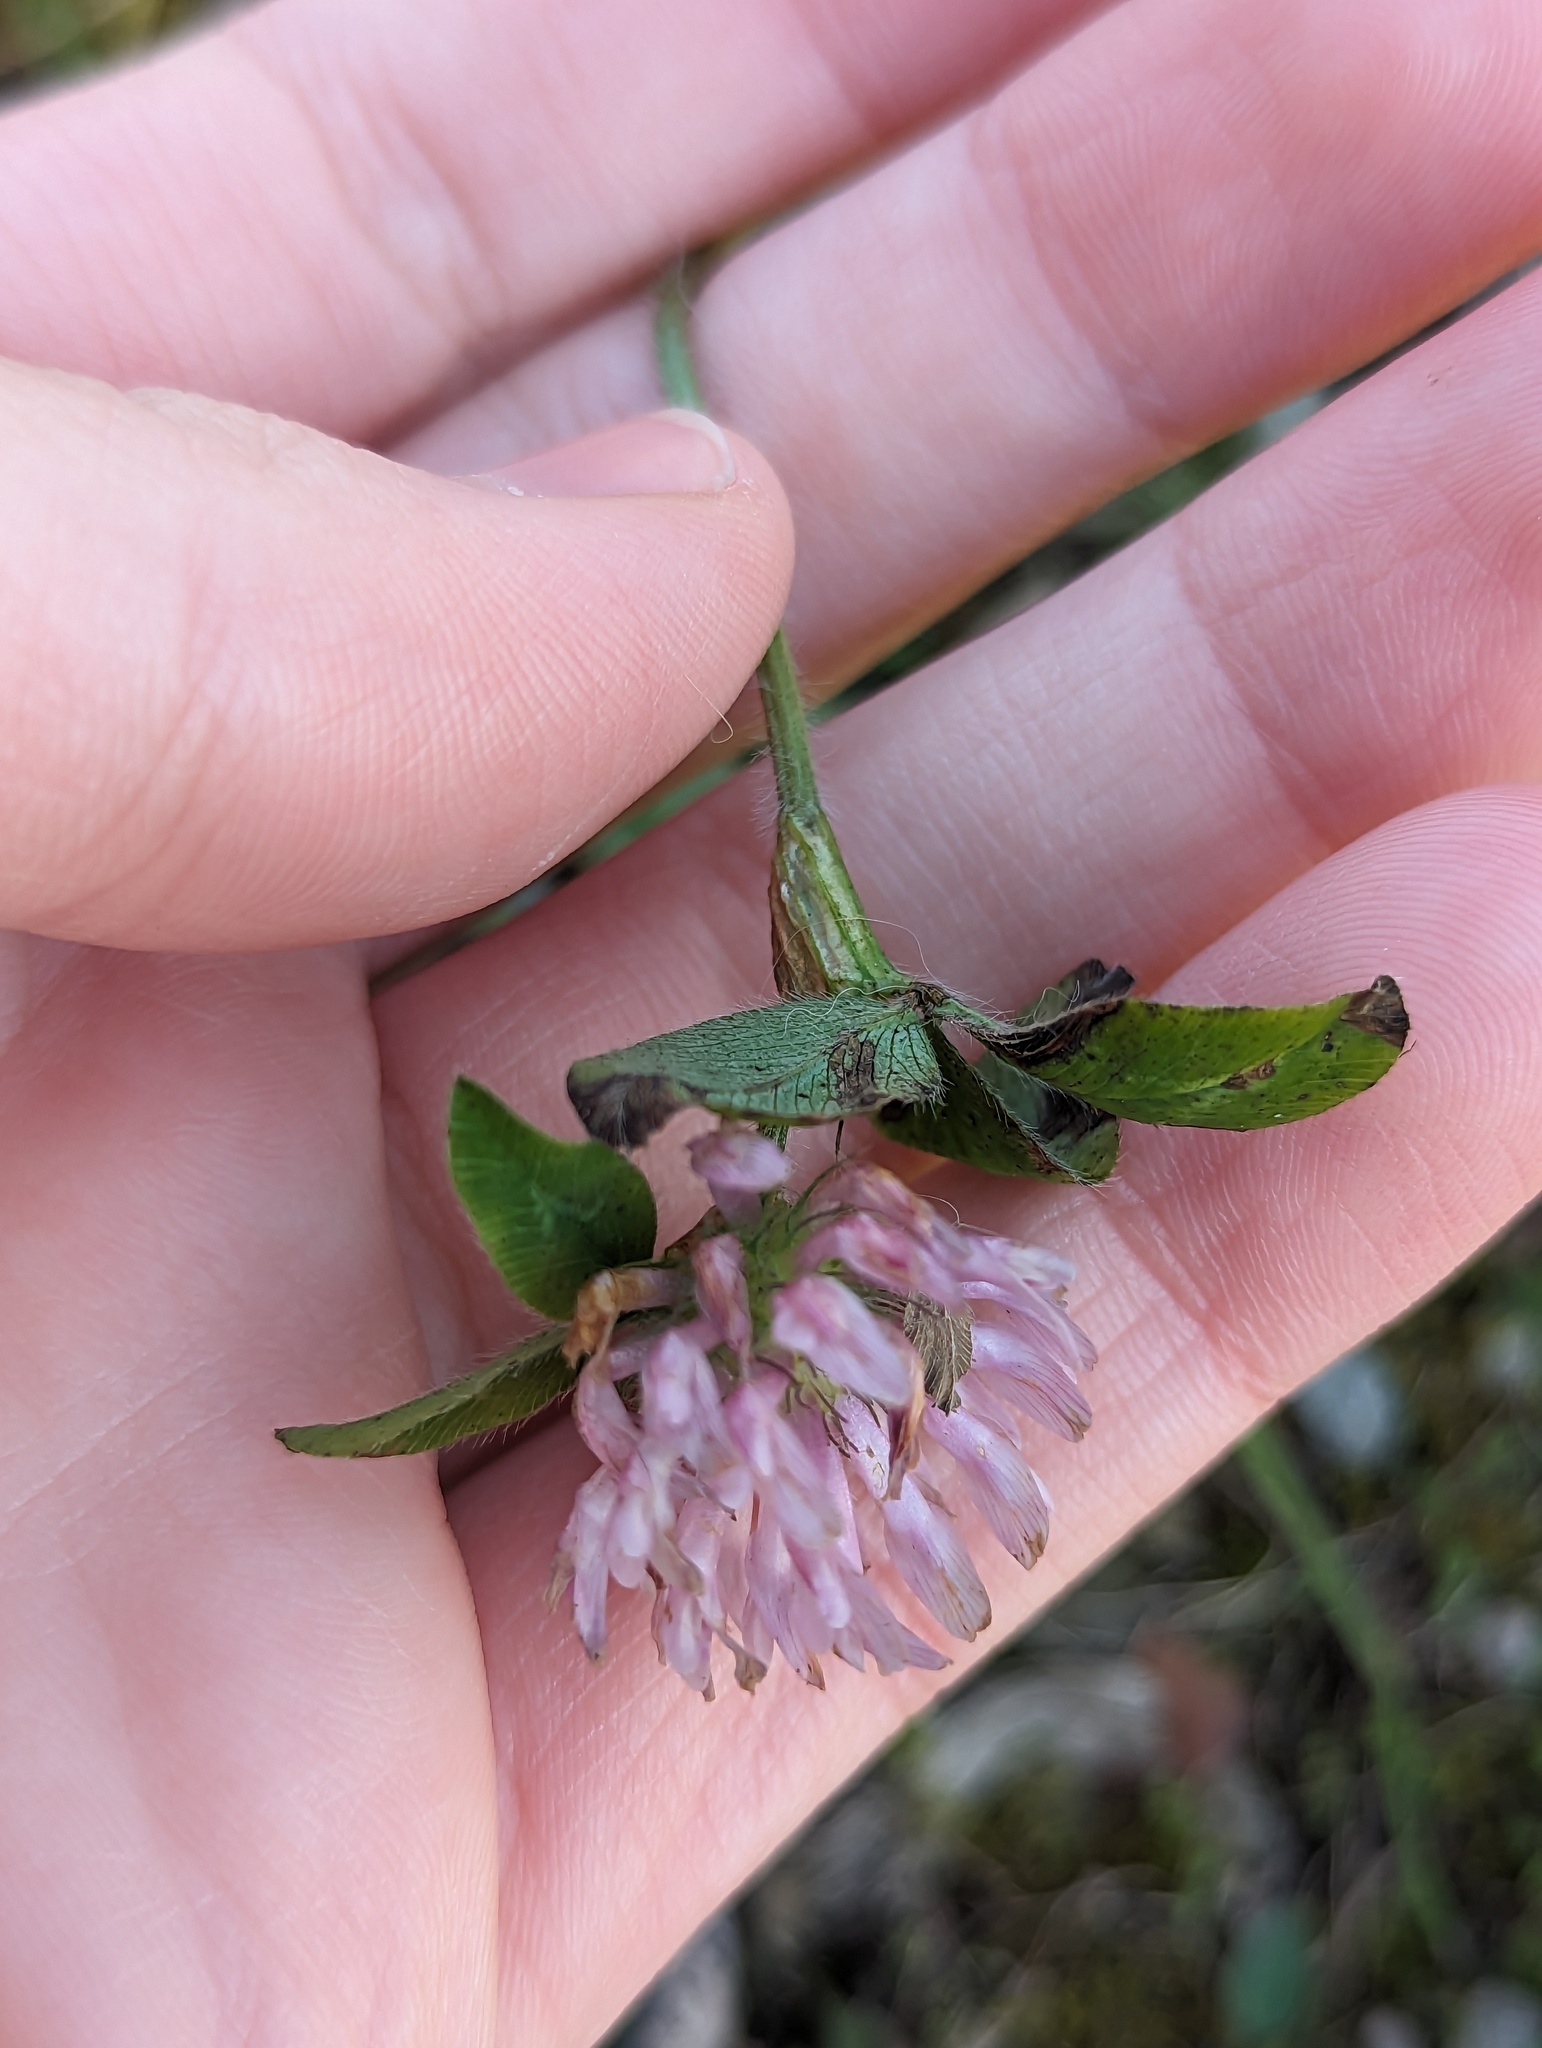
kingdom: Plantae
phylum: Tracheophyta
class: Magnoliopsida
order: Fabales
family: Fabaceae
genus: Trifolium
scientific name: Trifolium pratense
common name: Red clover
